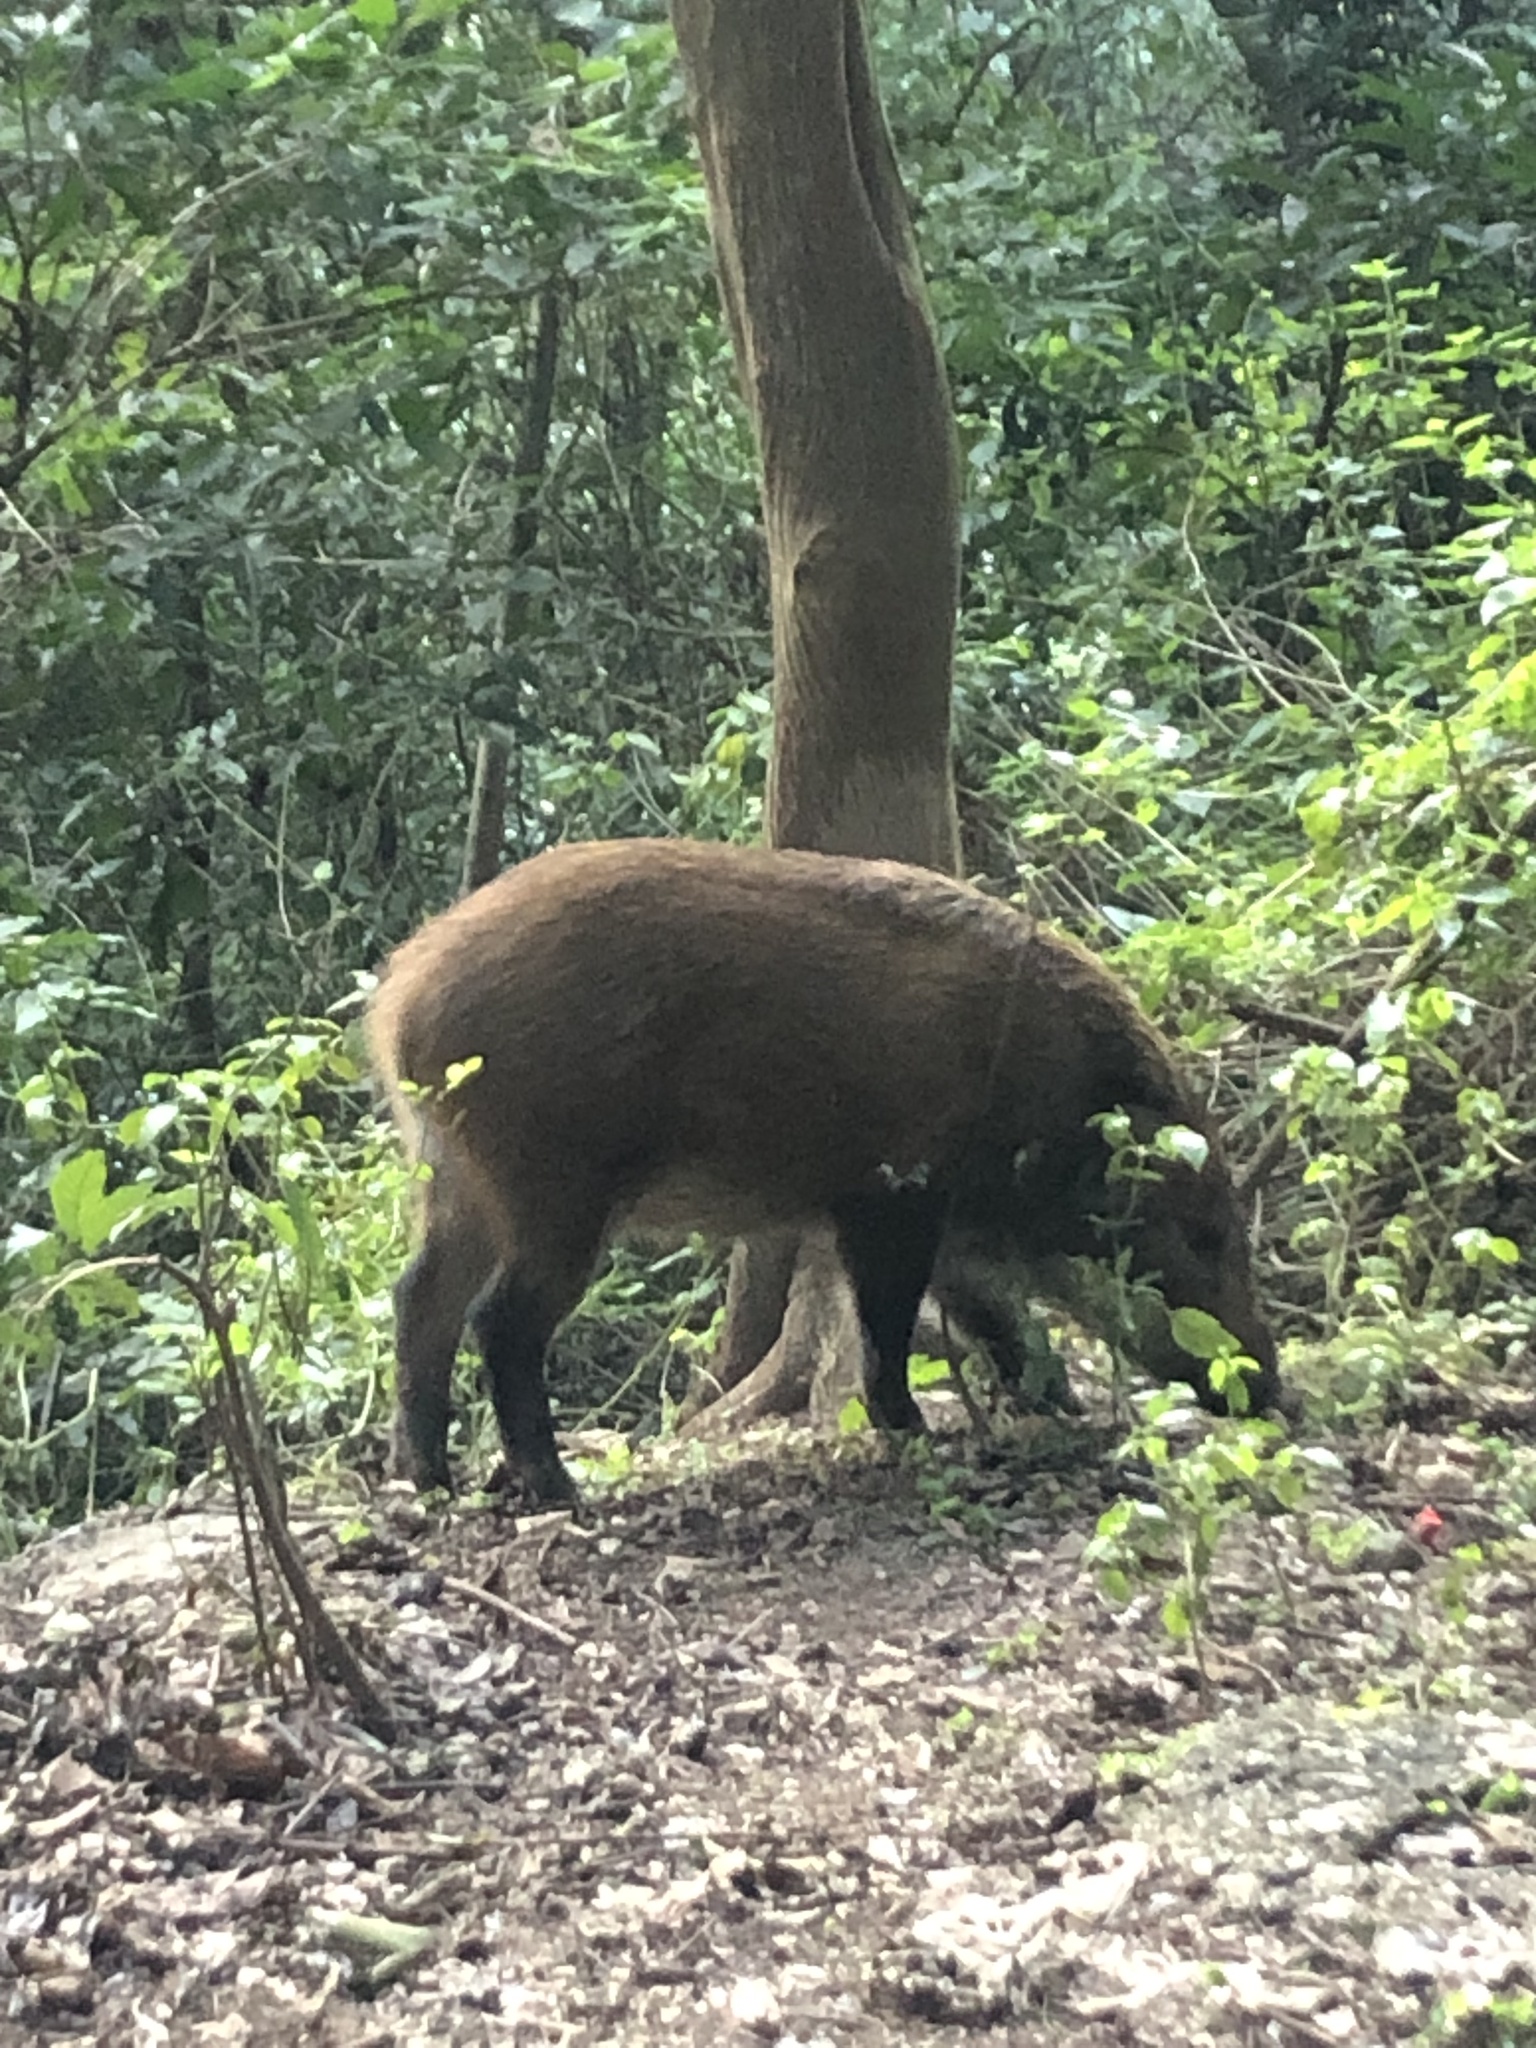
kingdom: Animalia
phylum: Chordata
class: Mammalia
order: Artiodactyla
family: Suidae
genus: Sus
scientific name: Sus scrofa
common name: Wild boar
